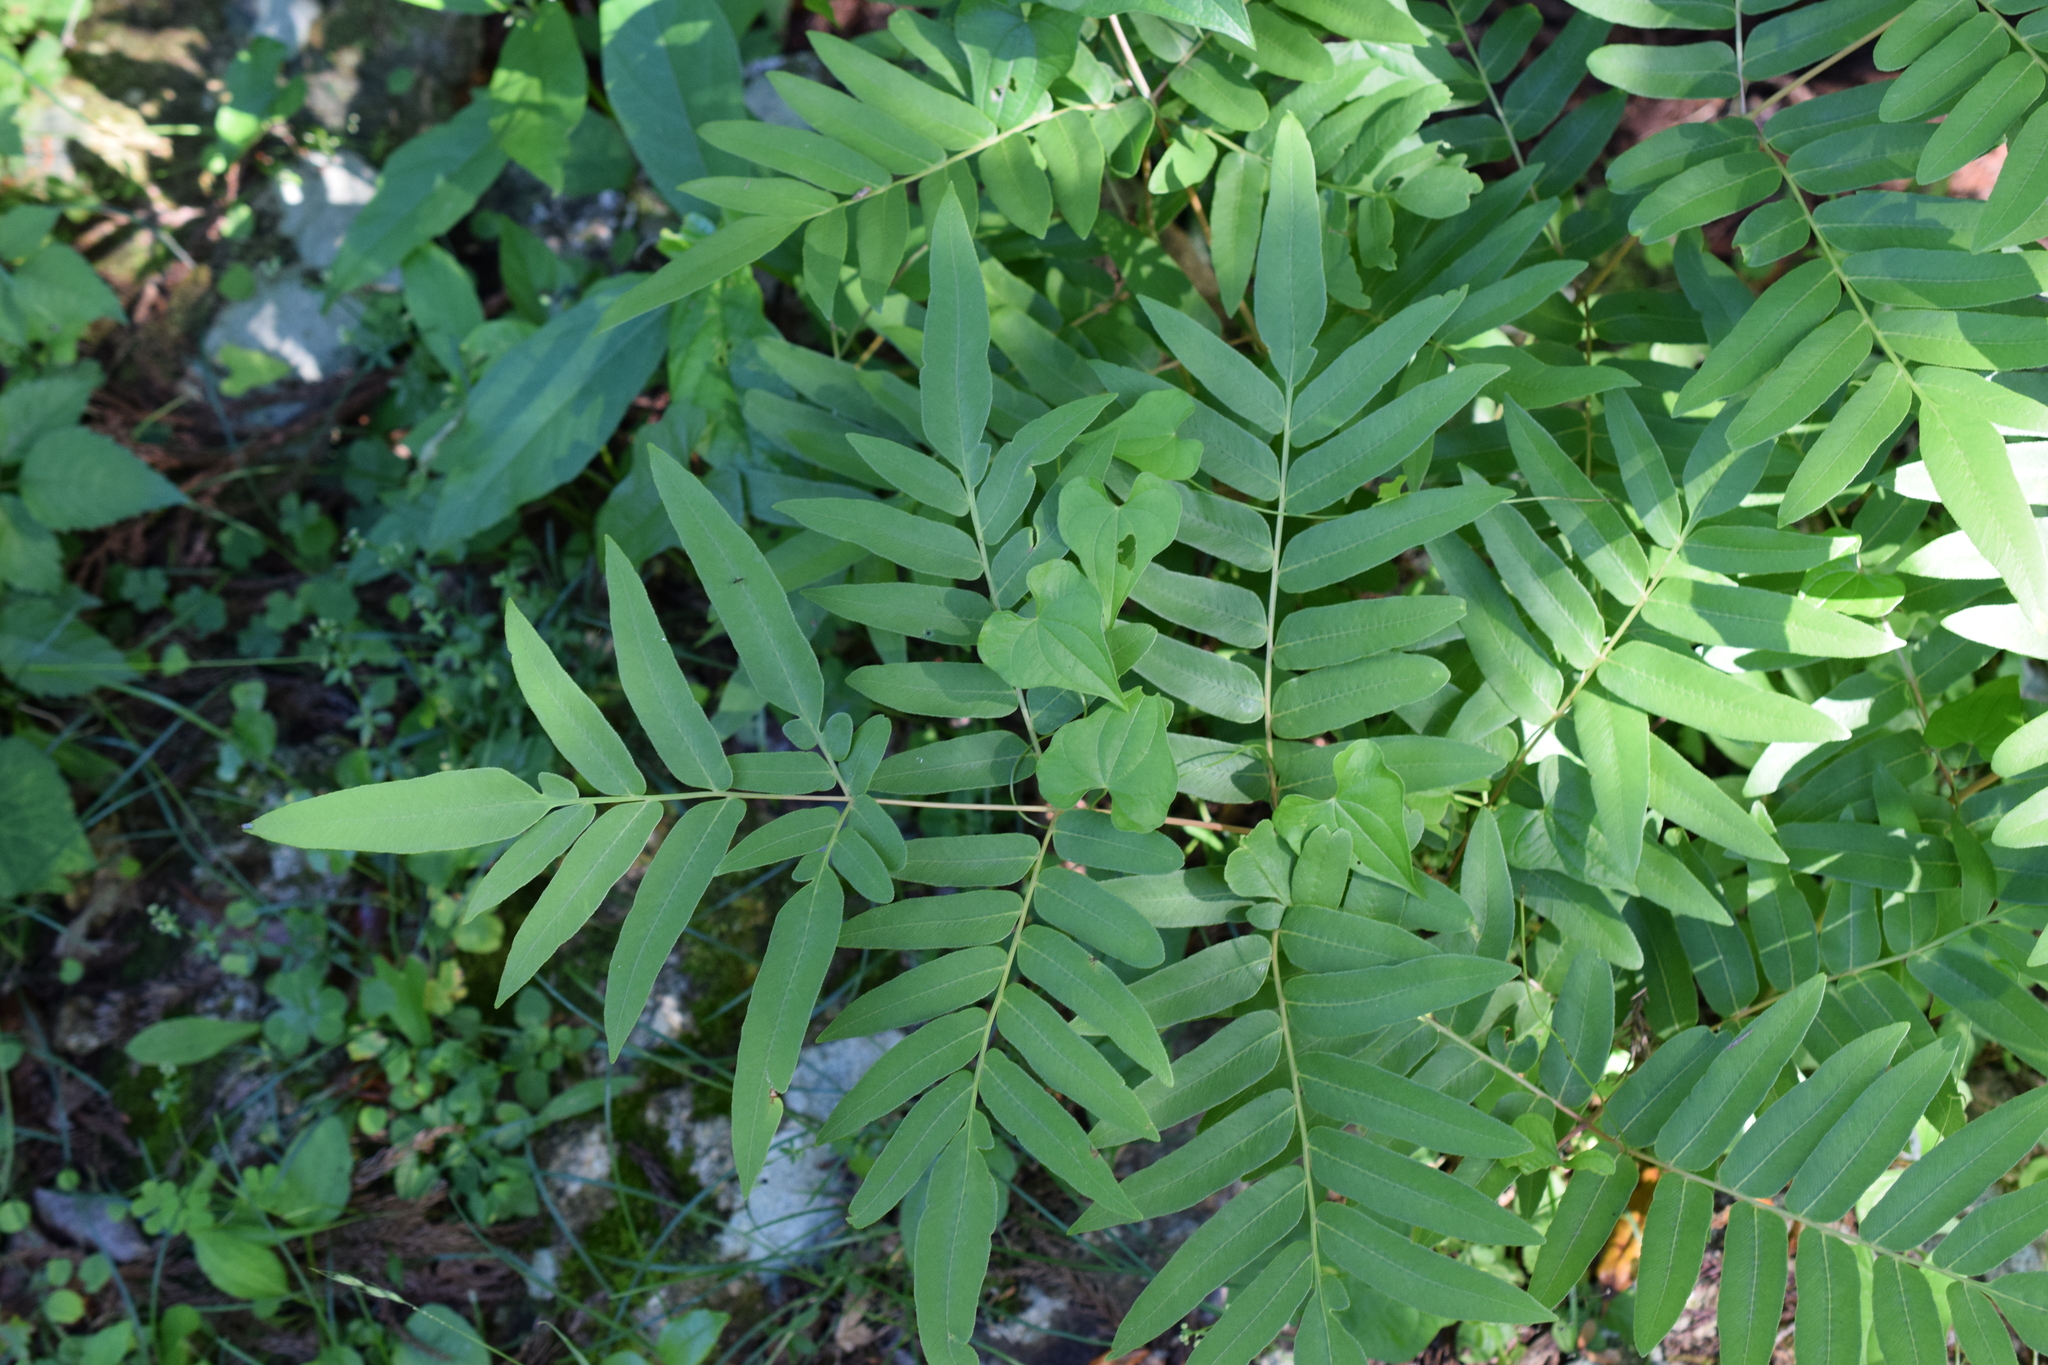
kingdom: Plantae
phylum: Tracheophyta
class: Polypodiopsida
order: Osmundales
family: Osmundaceae
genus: Osmunda
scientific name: Osmunda japonica
